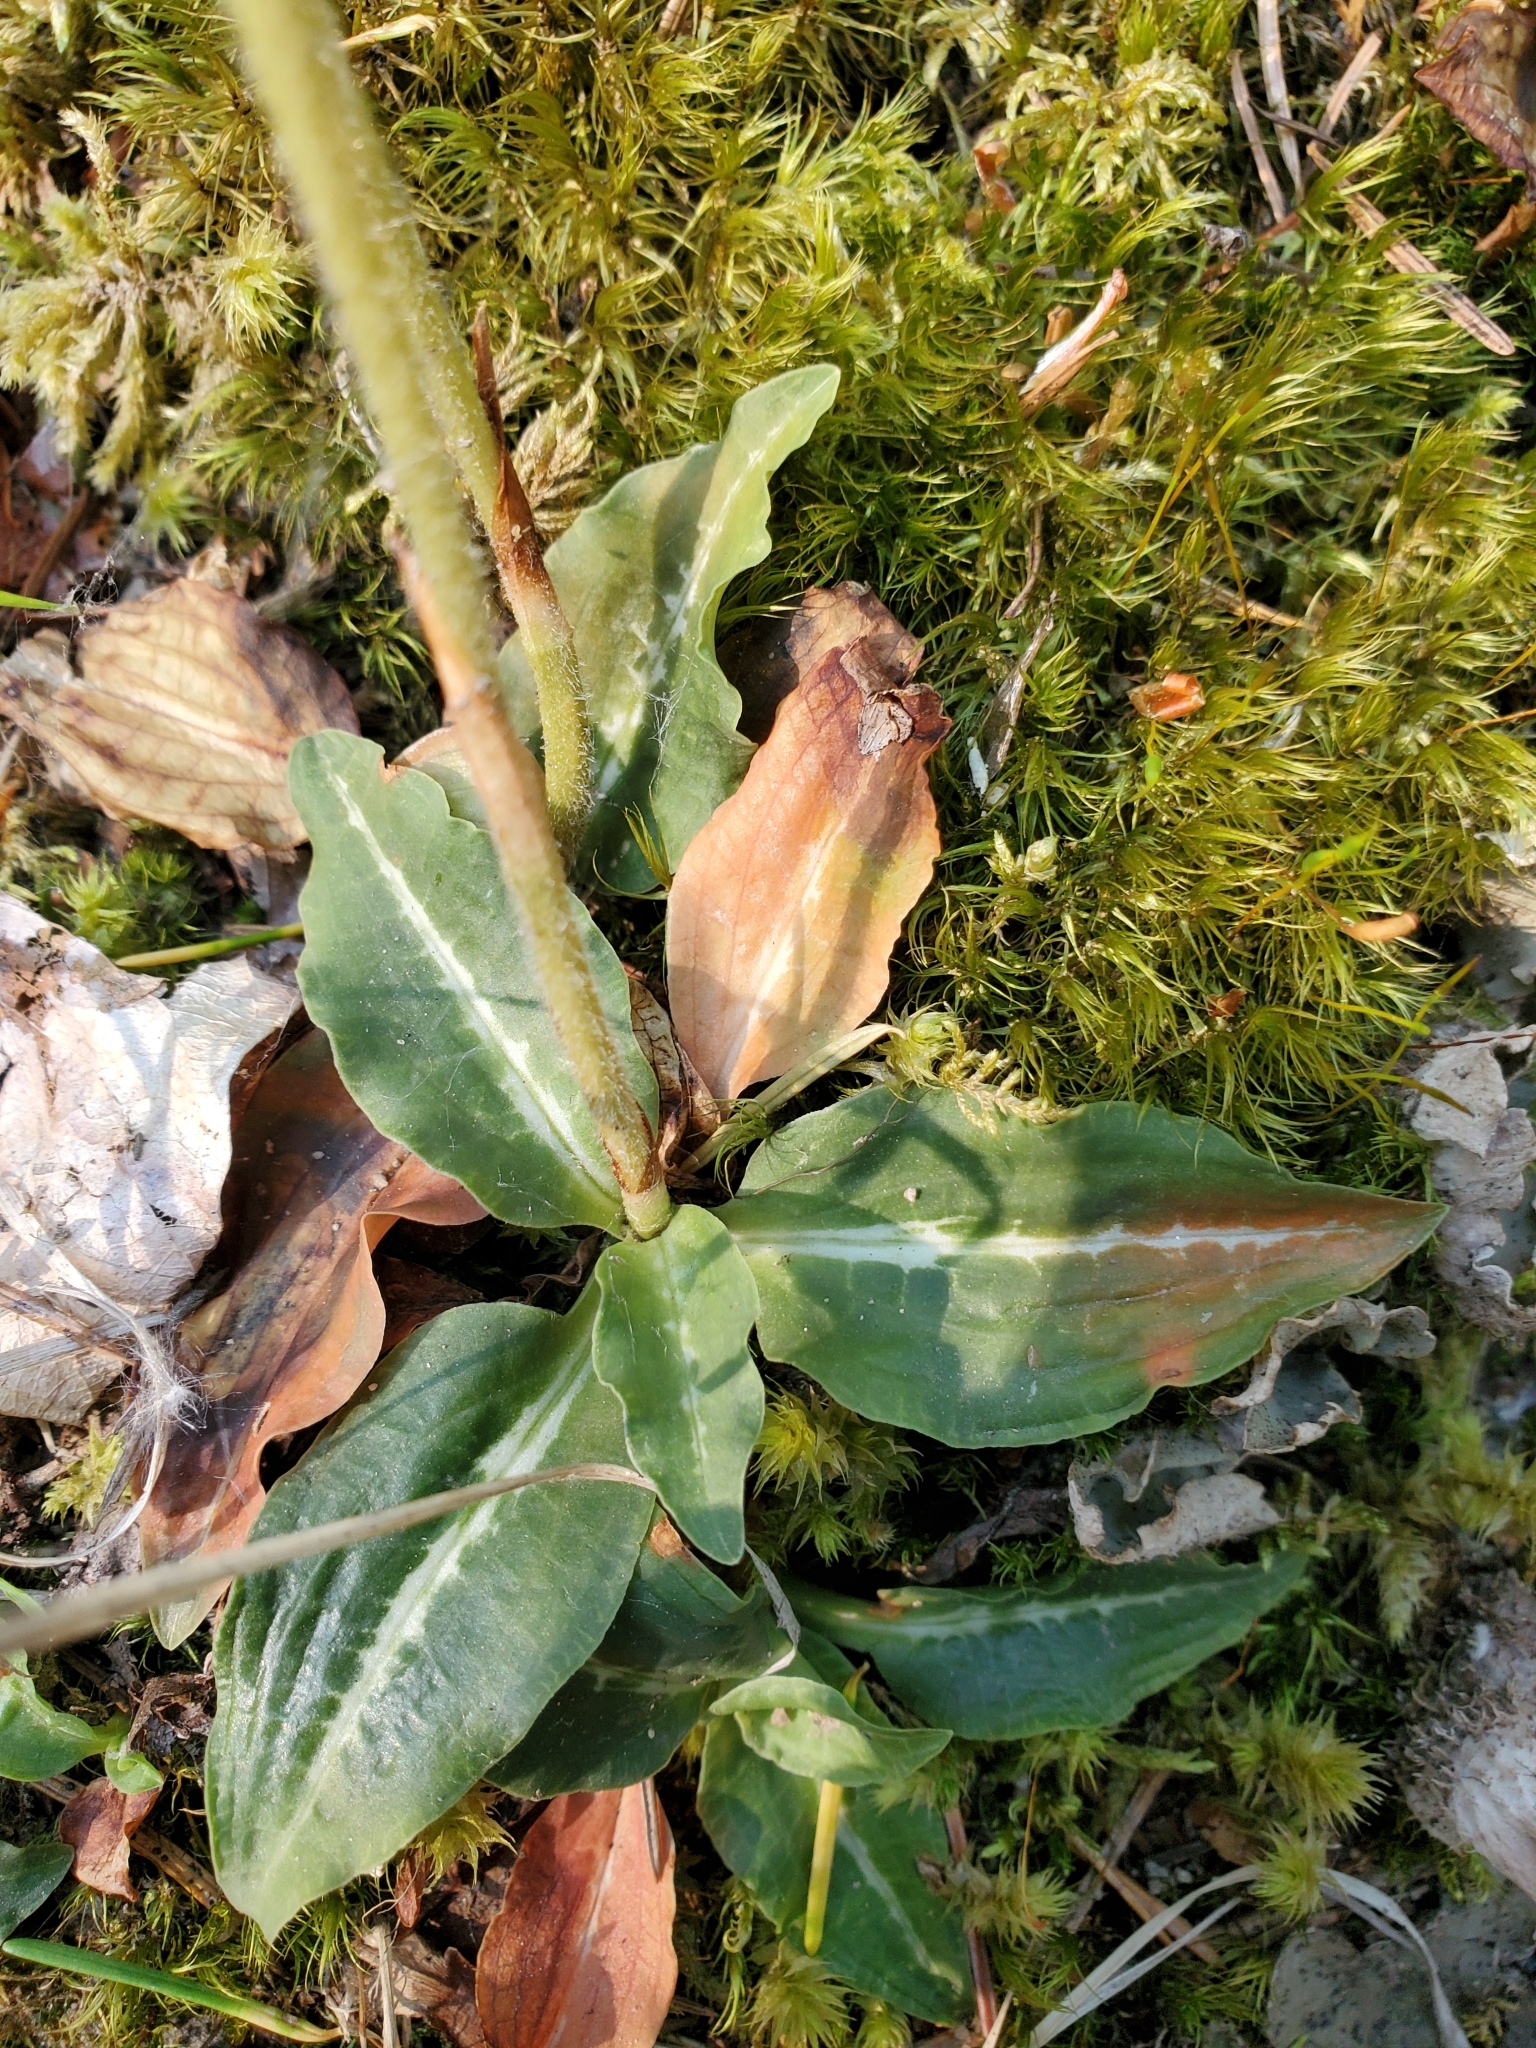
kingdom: Plantae
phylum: Tracheophyta
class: Liliopsida
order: Asparagales
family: Orchidaceae
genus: Goodyera
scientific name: Goodyera oblongifolia
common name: Giant rattlesnake-plantain
